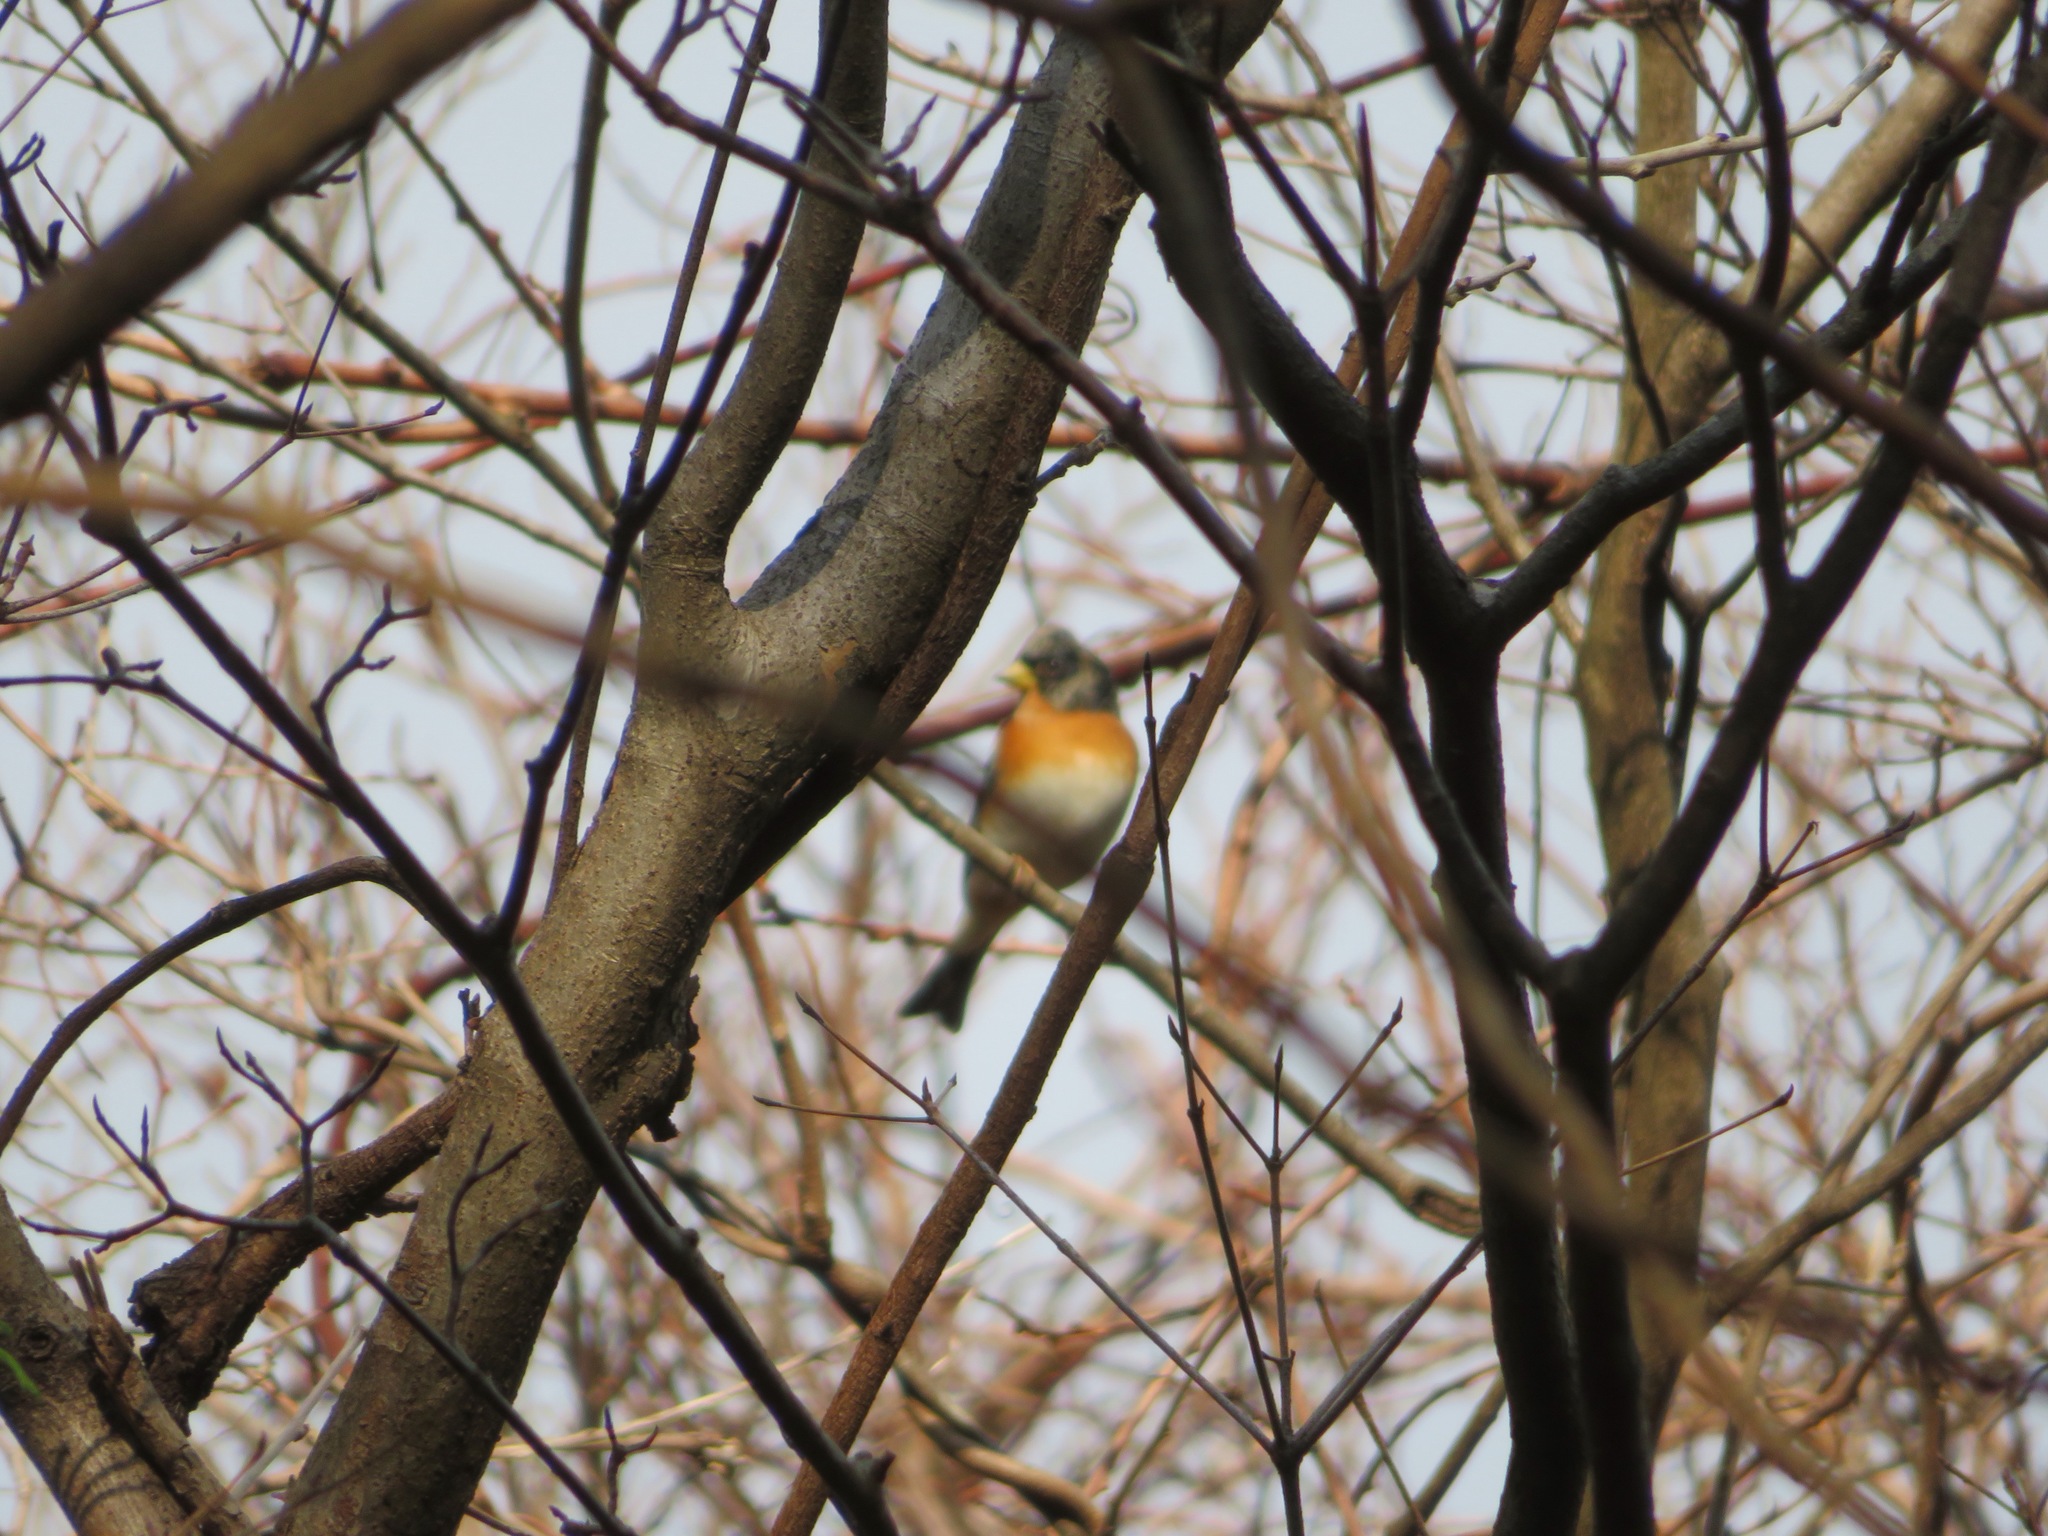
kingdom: Animalia
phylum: Chordata
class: Aves
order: Passeriformes
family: Fringillidae
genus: Fringilla
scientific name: Fringilla montifringilla
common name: Brambling
